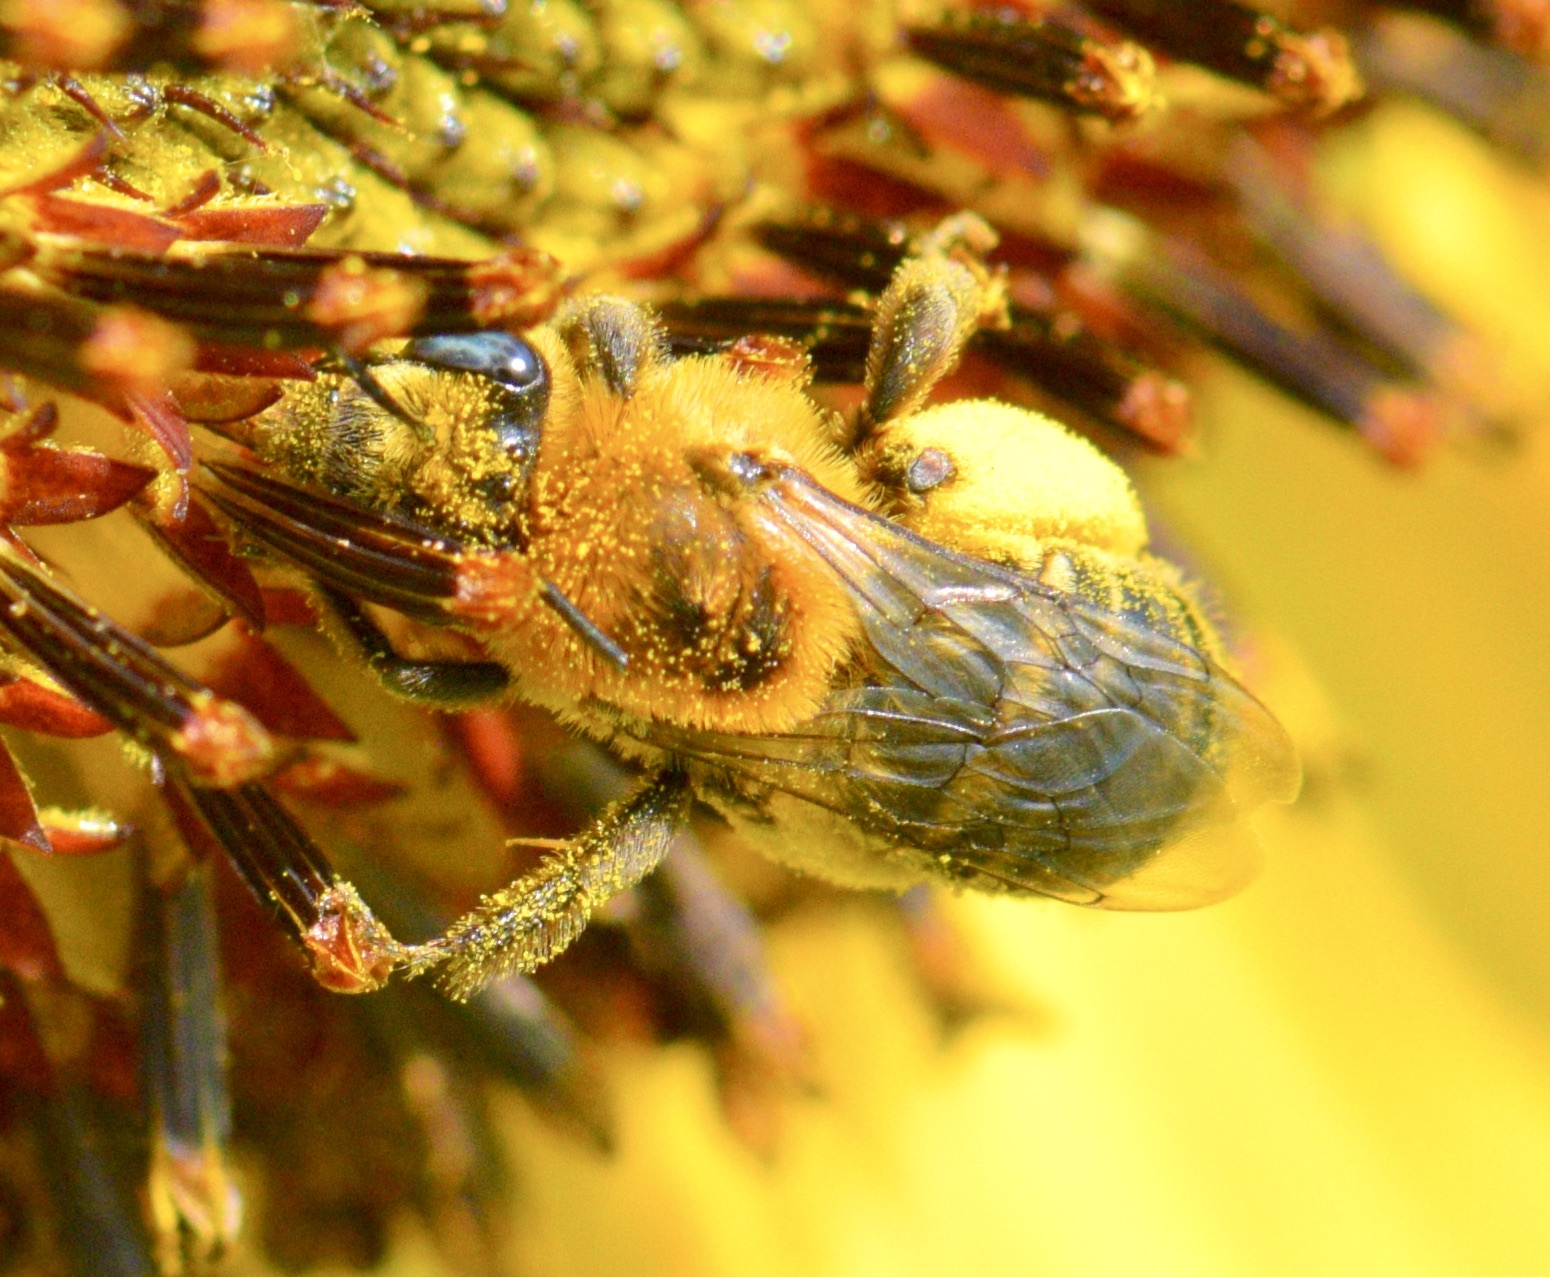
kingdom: Animalia
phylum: Arthropoda
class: Insecta
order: Hymenoptera
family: Apidae
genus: Melissodes
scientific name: Melissodes trinodis
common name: Dark-veined longhorn
